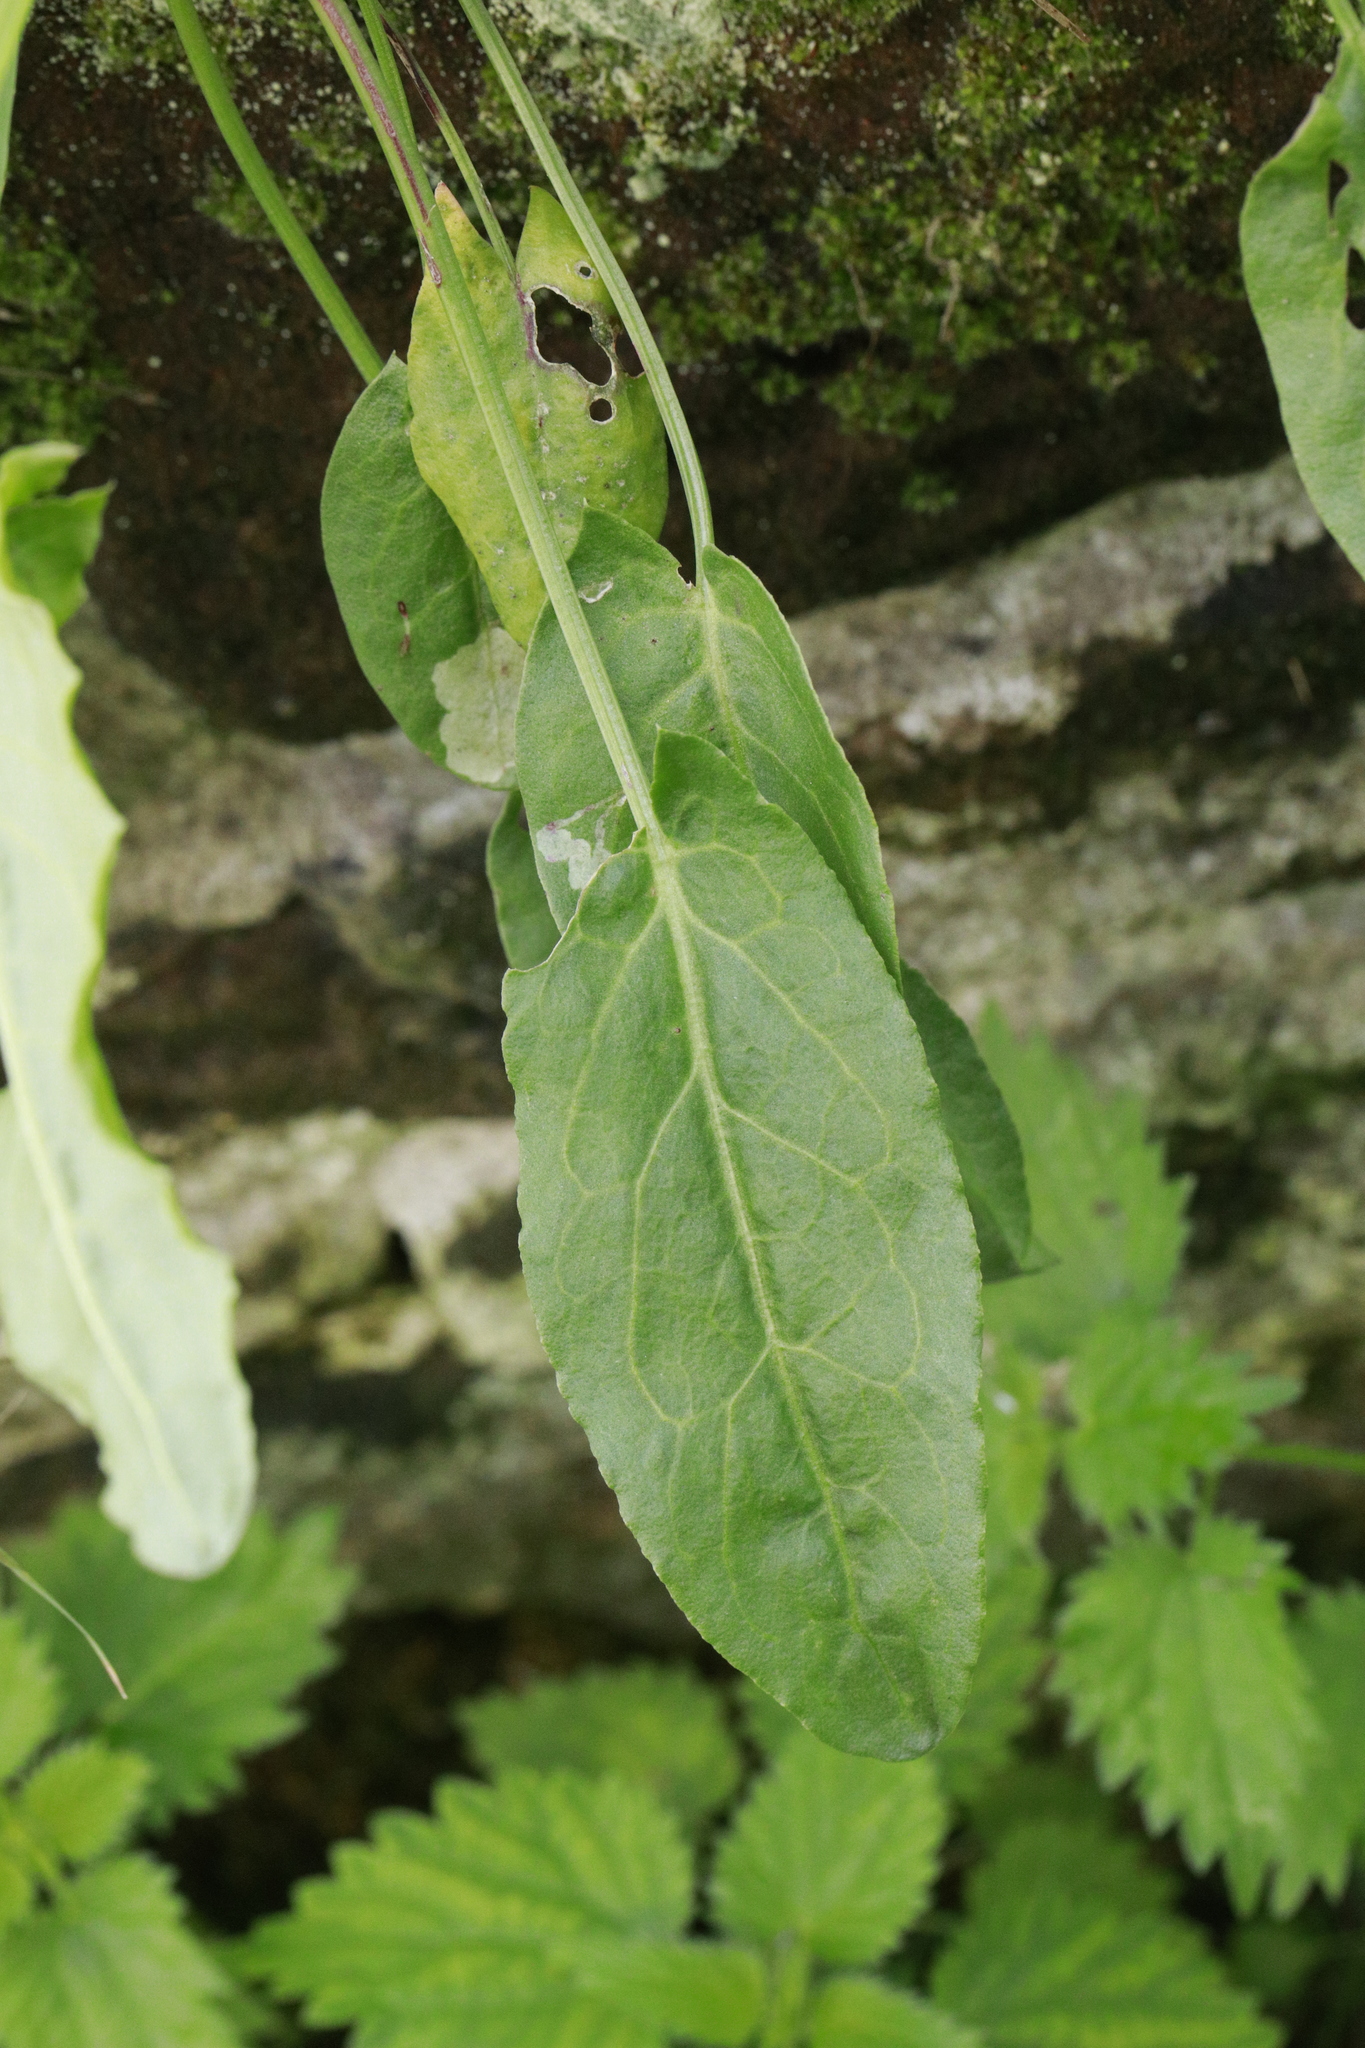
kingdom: Plantae
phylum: Tracheophyta
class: Magnoliopsida
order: Caryophyllales
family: Polygonaceae
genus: Rumex
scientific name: Rumex acetosa
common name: Garden sorrel
